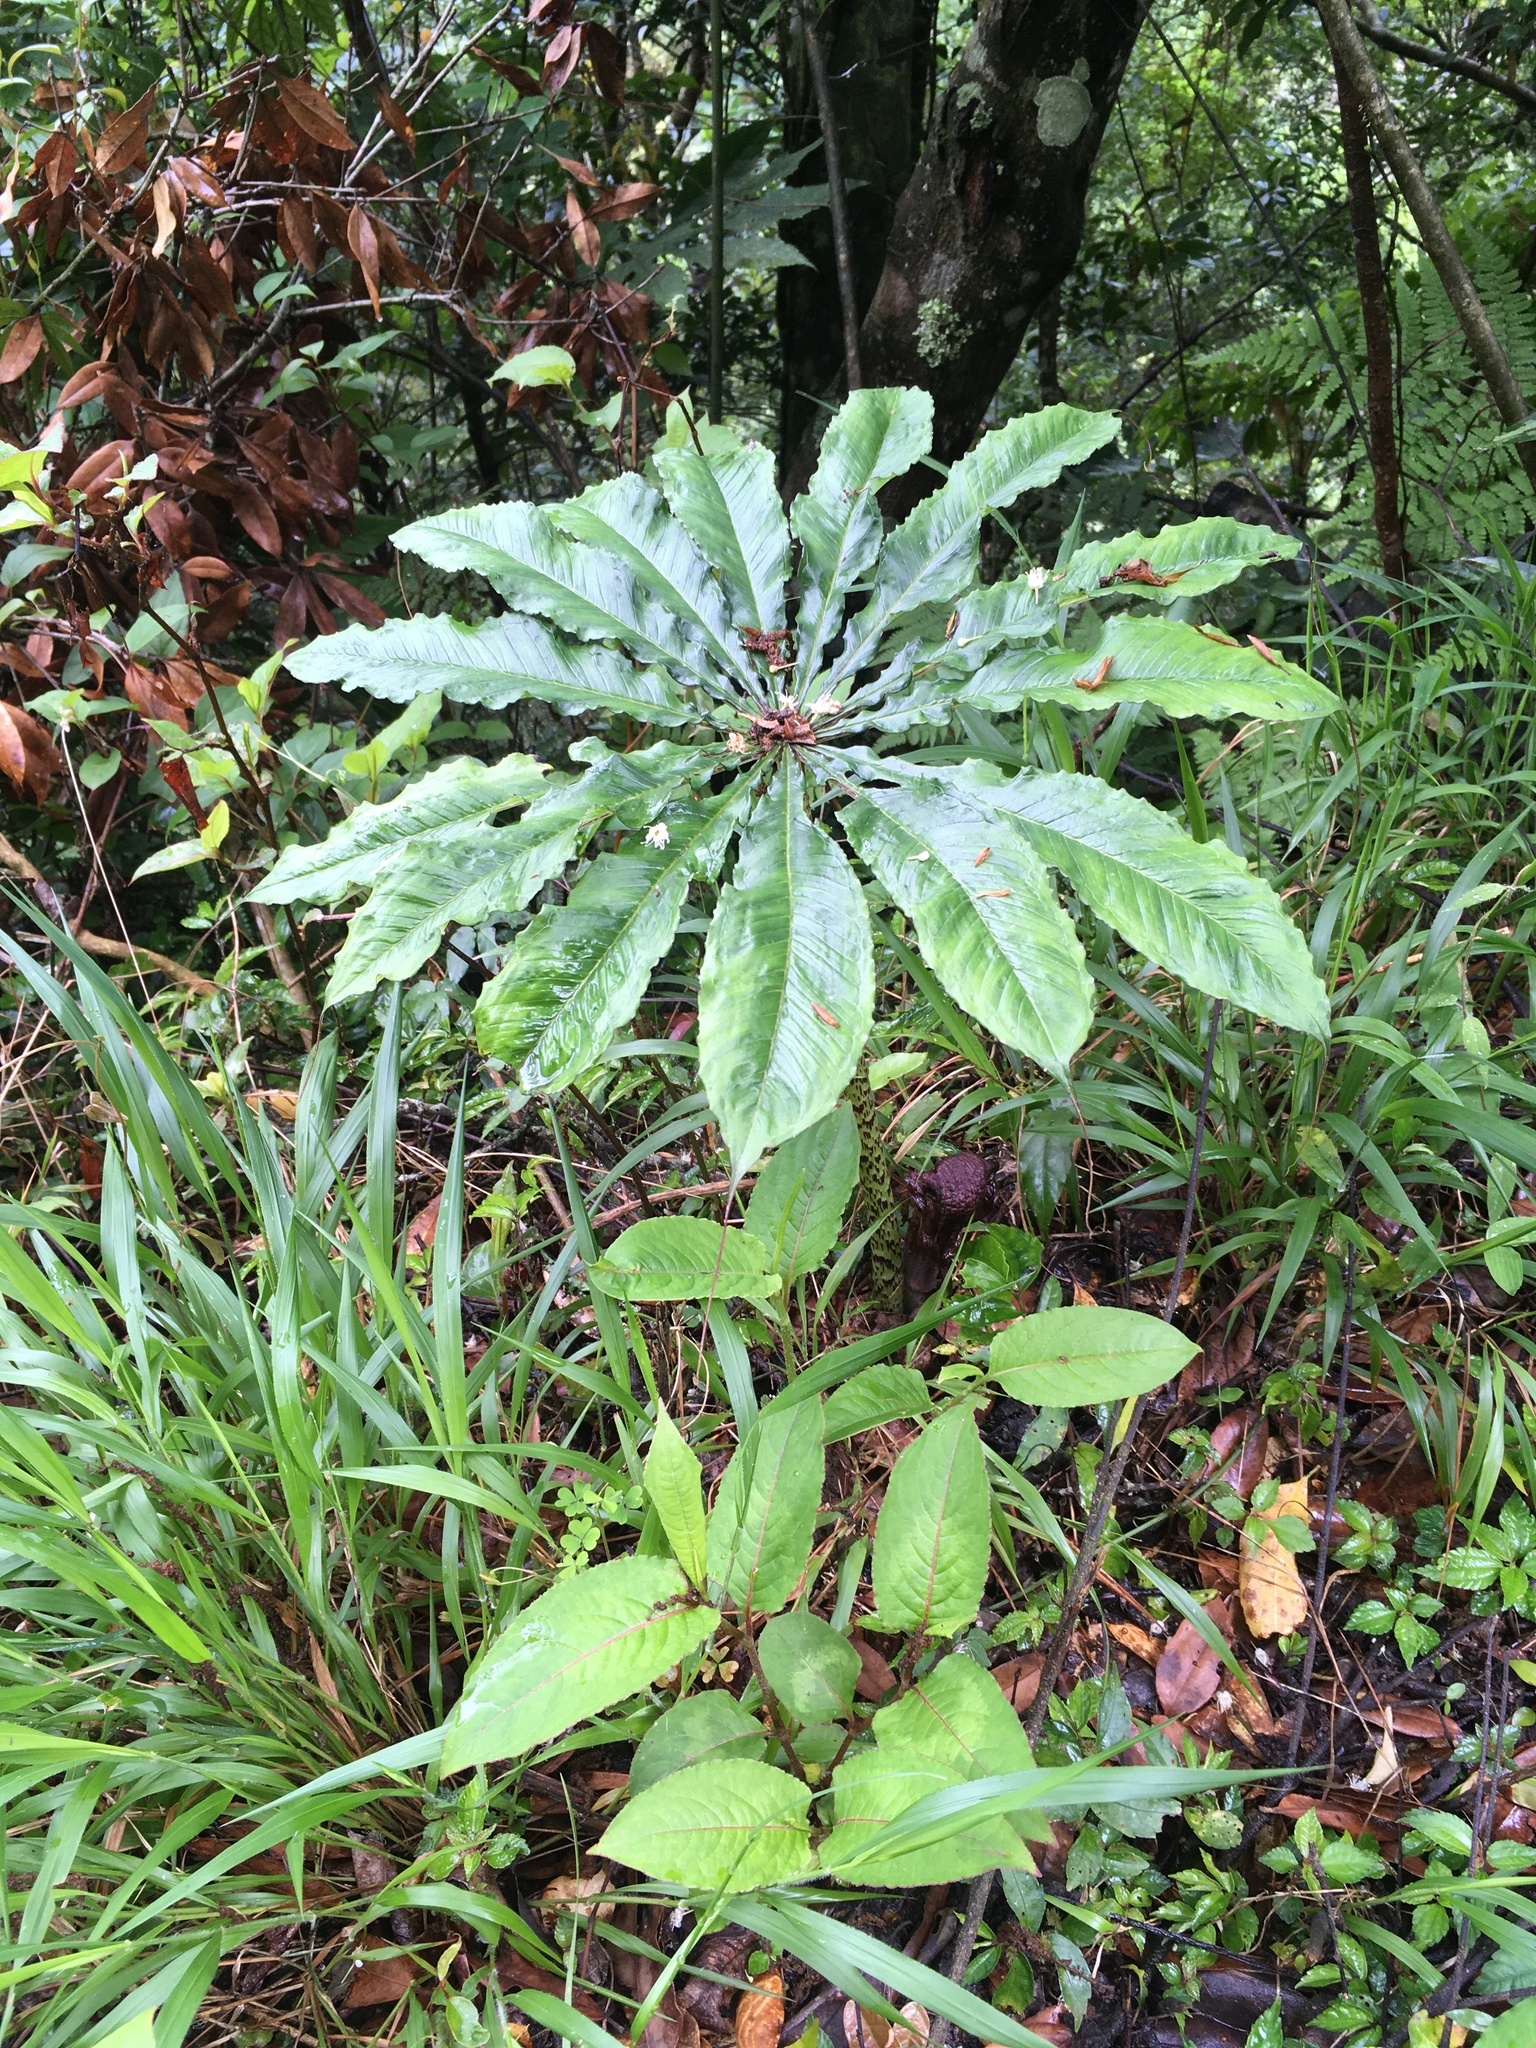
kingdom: Plantae
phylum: Tracheophyta
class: Liliopsida
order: Alismatales
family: Araceae
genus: Arisaema
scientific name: Arisaema taiwanense
